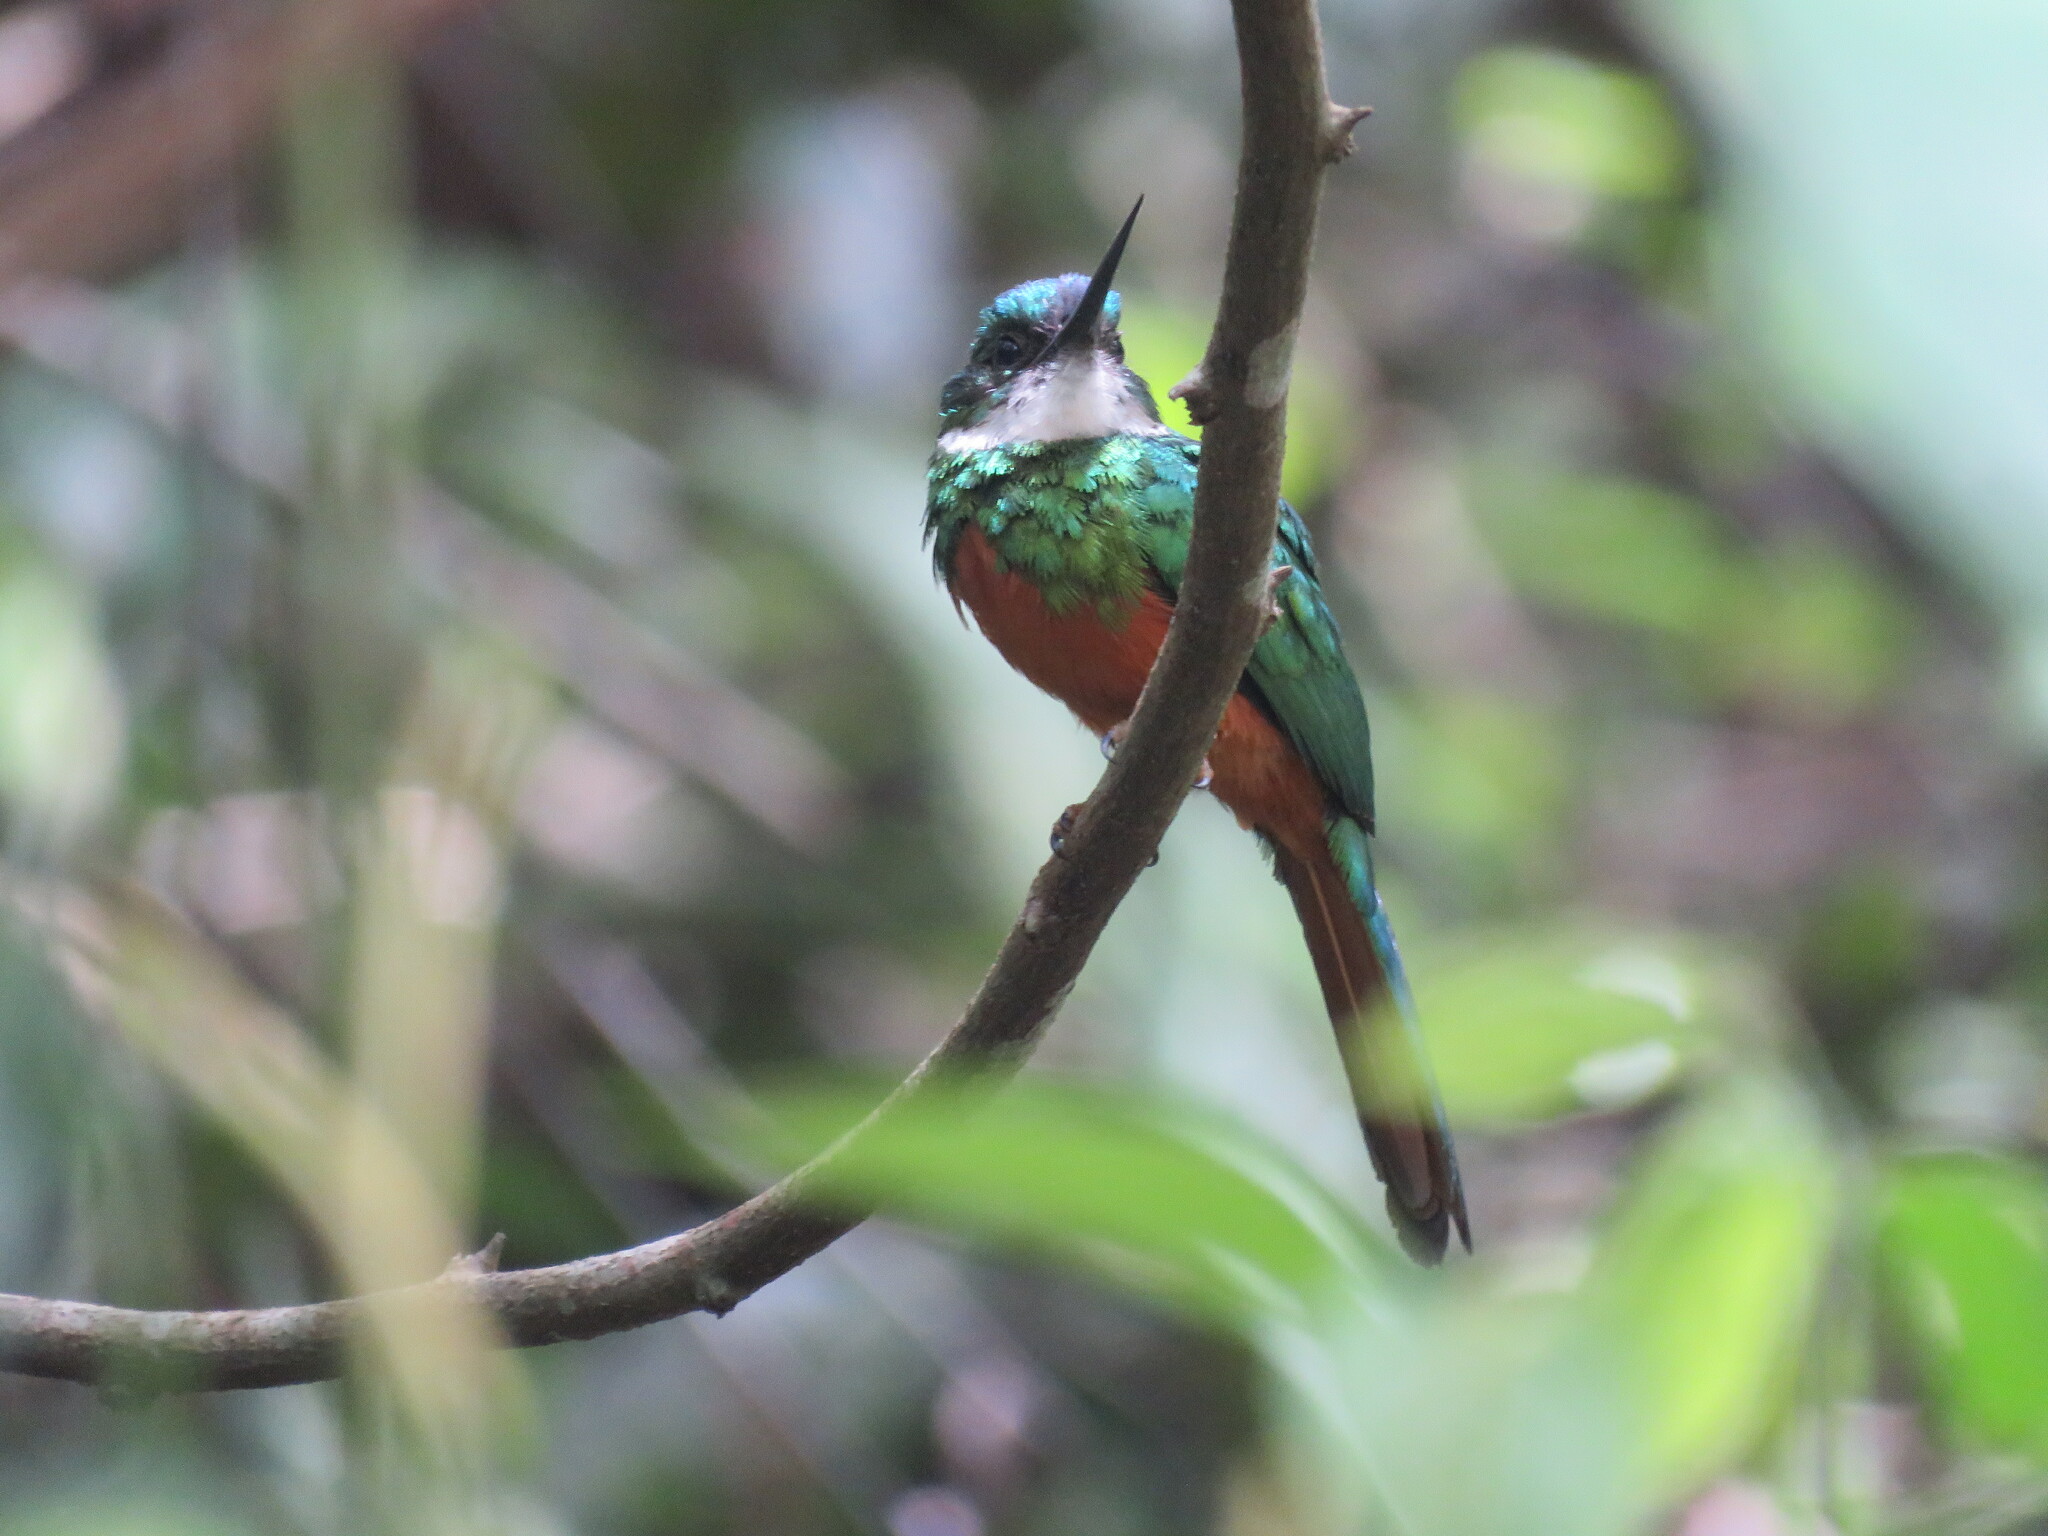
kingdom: Animalia
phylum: Chordata
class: Aves
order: Piciformes
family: Galbulidae
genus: Galbula
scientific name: Galbula ruficauda
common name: Rufous-tailed jacamar
